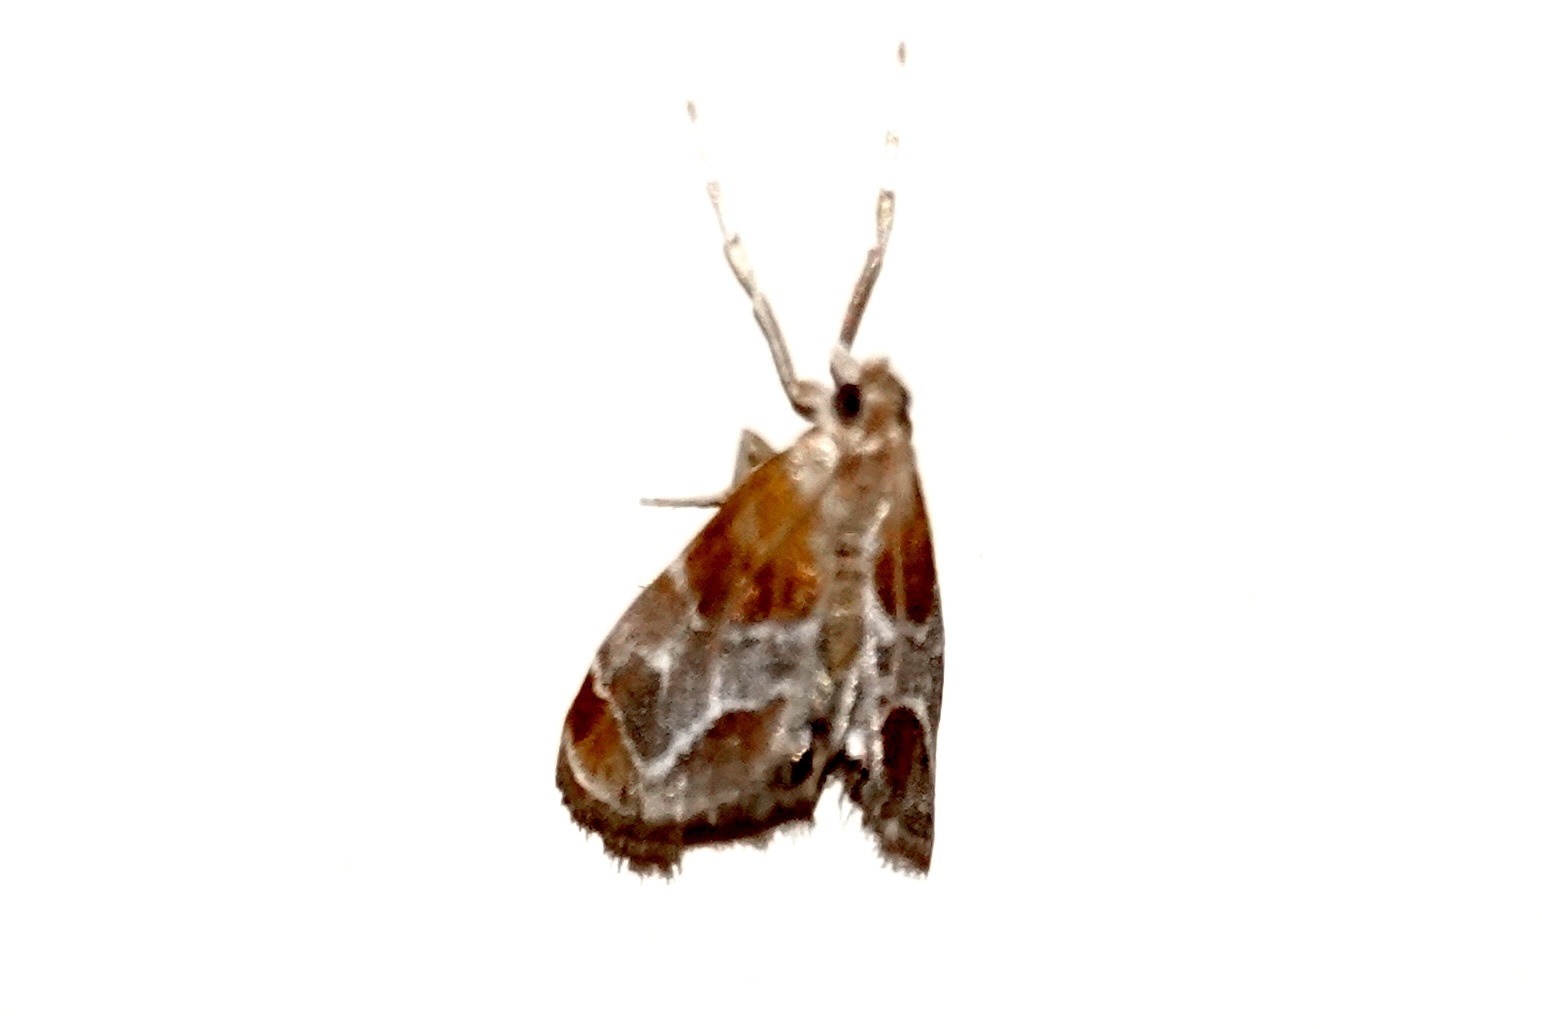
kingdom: Animalia
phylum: Arthropoda
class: Insecta
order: Lepidoptera
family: Crambidae
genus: Chalcoela
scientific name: Chalcoela pegasalis
